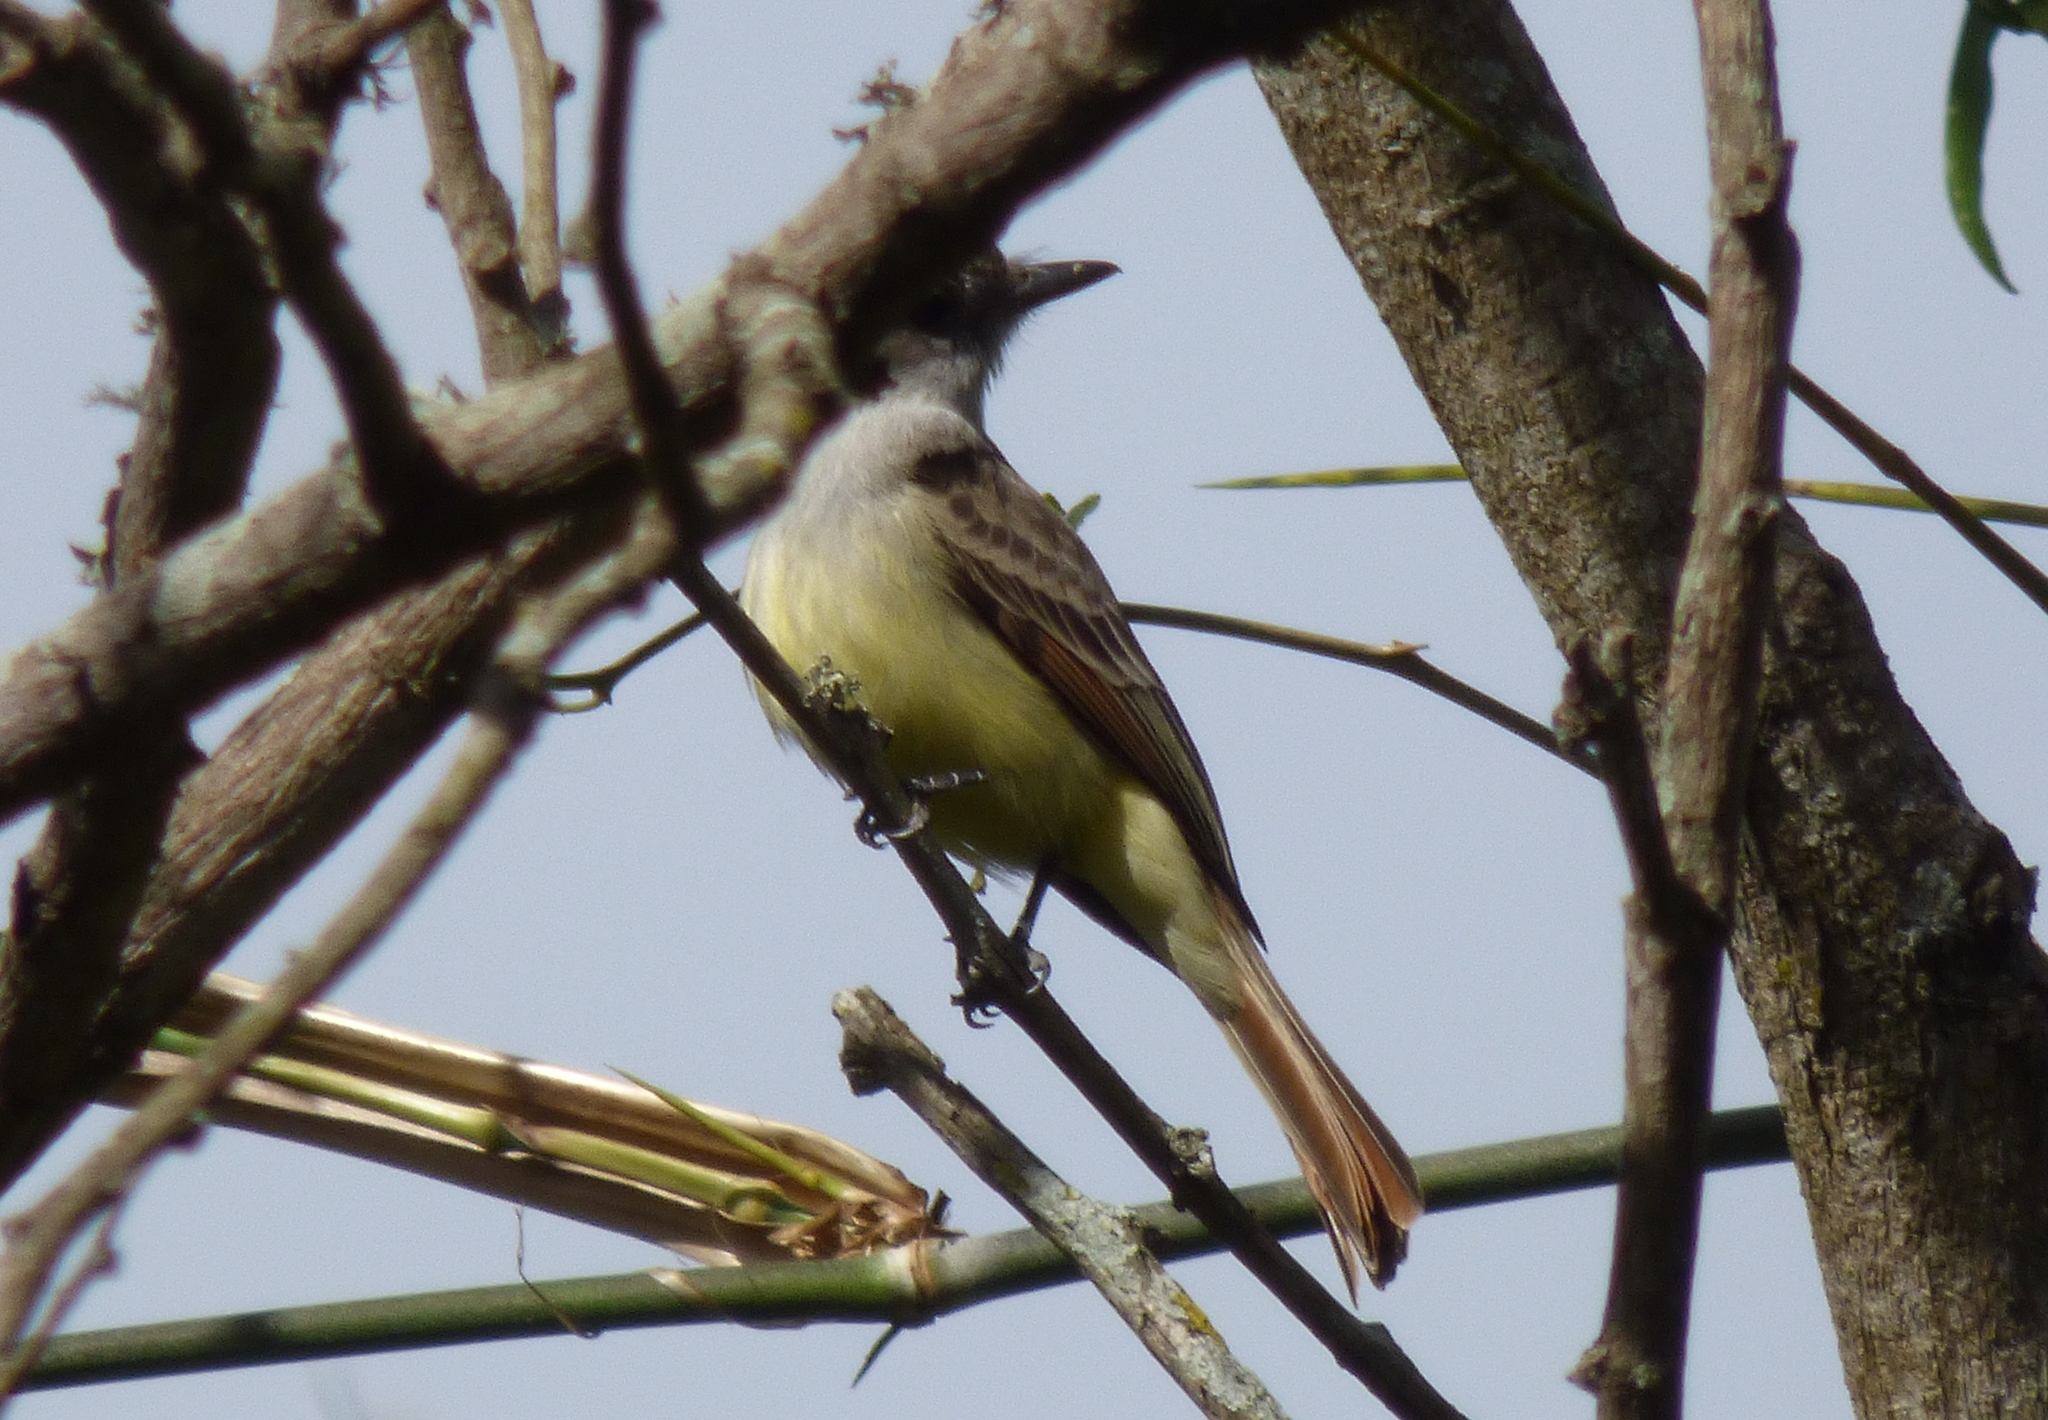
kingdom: Animalia
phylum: Chordata
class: Aves
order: Passeriformes
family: Tyrannidae
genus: Myiarchus
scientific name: Myiarchus tyrannulus
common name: Brown-crested flycatcher
